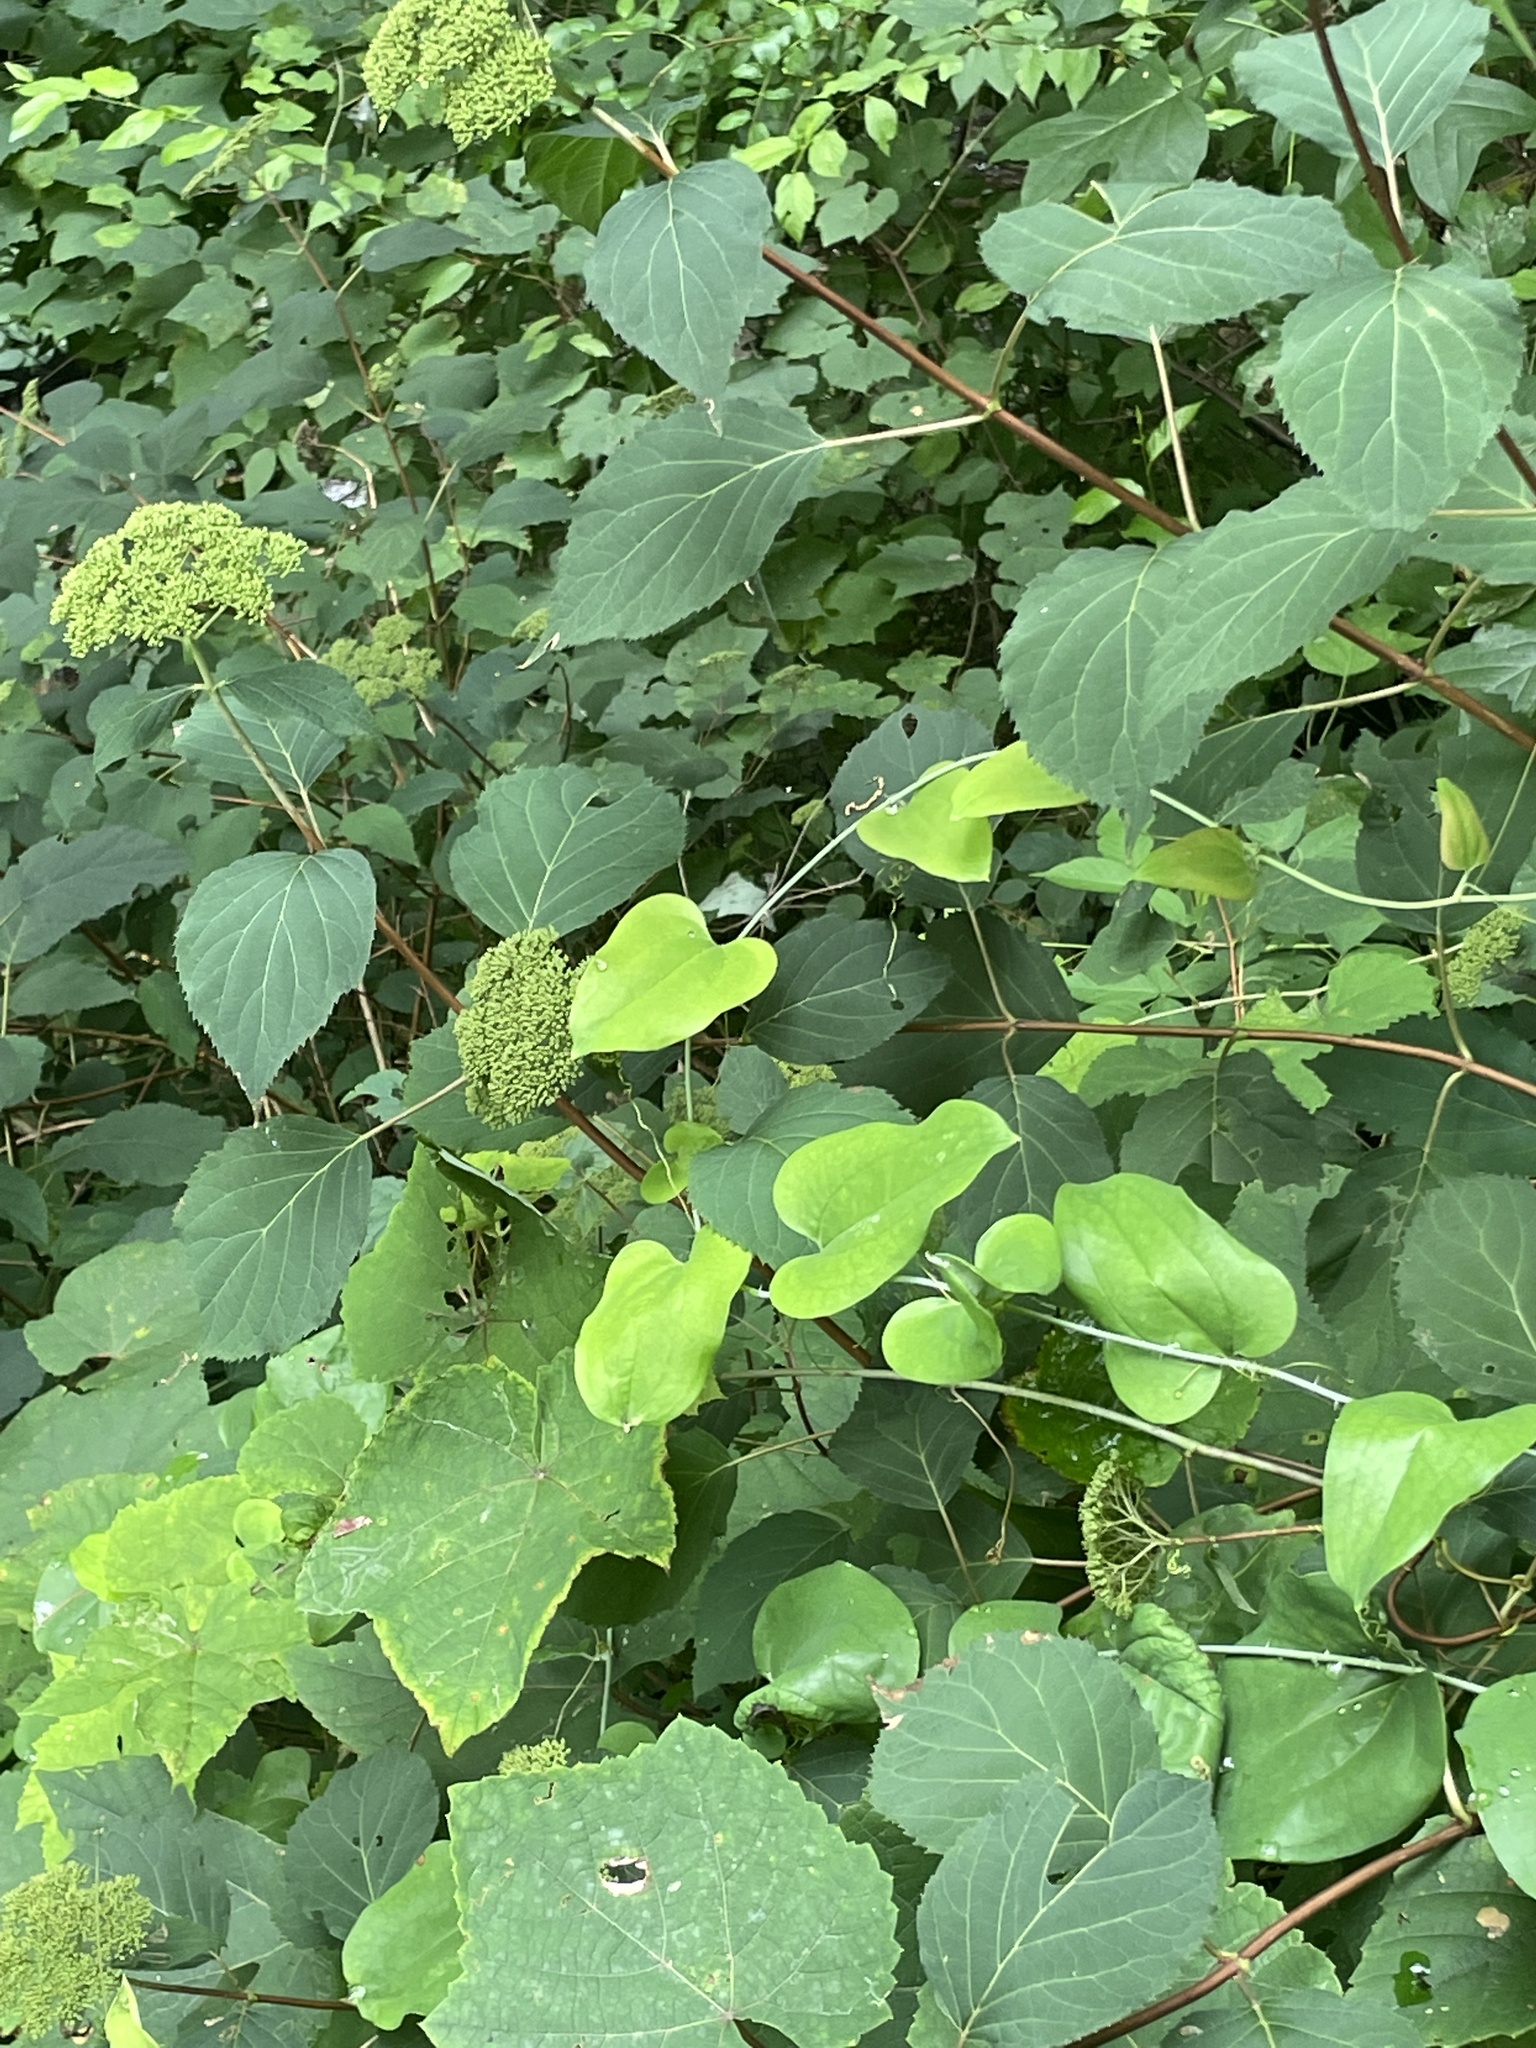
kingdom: Plantae
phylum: Tracheophyta
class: Liliopsida
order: Liliales
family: Smilacaceae
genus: Smilax
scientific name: Smilax glauca
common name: Cat greenbrier
